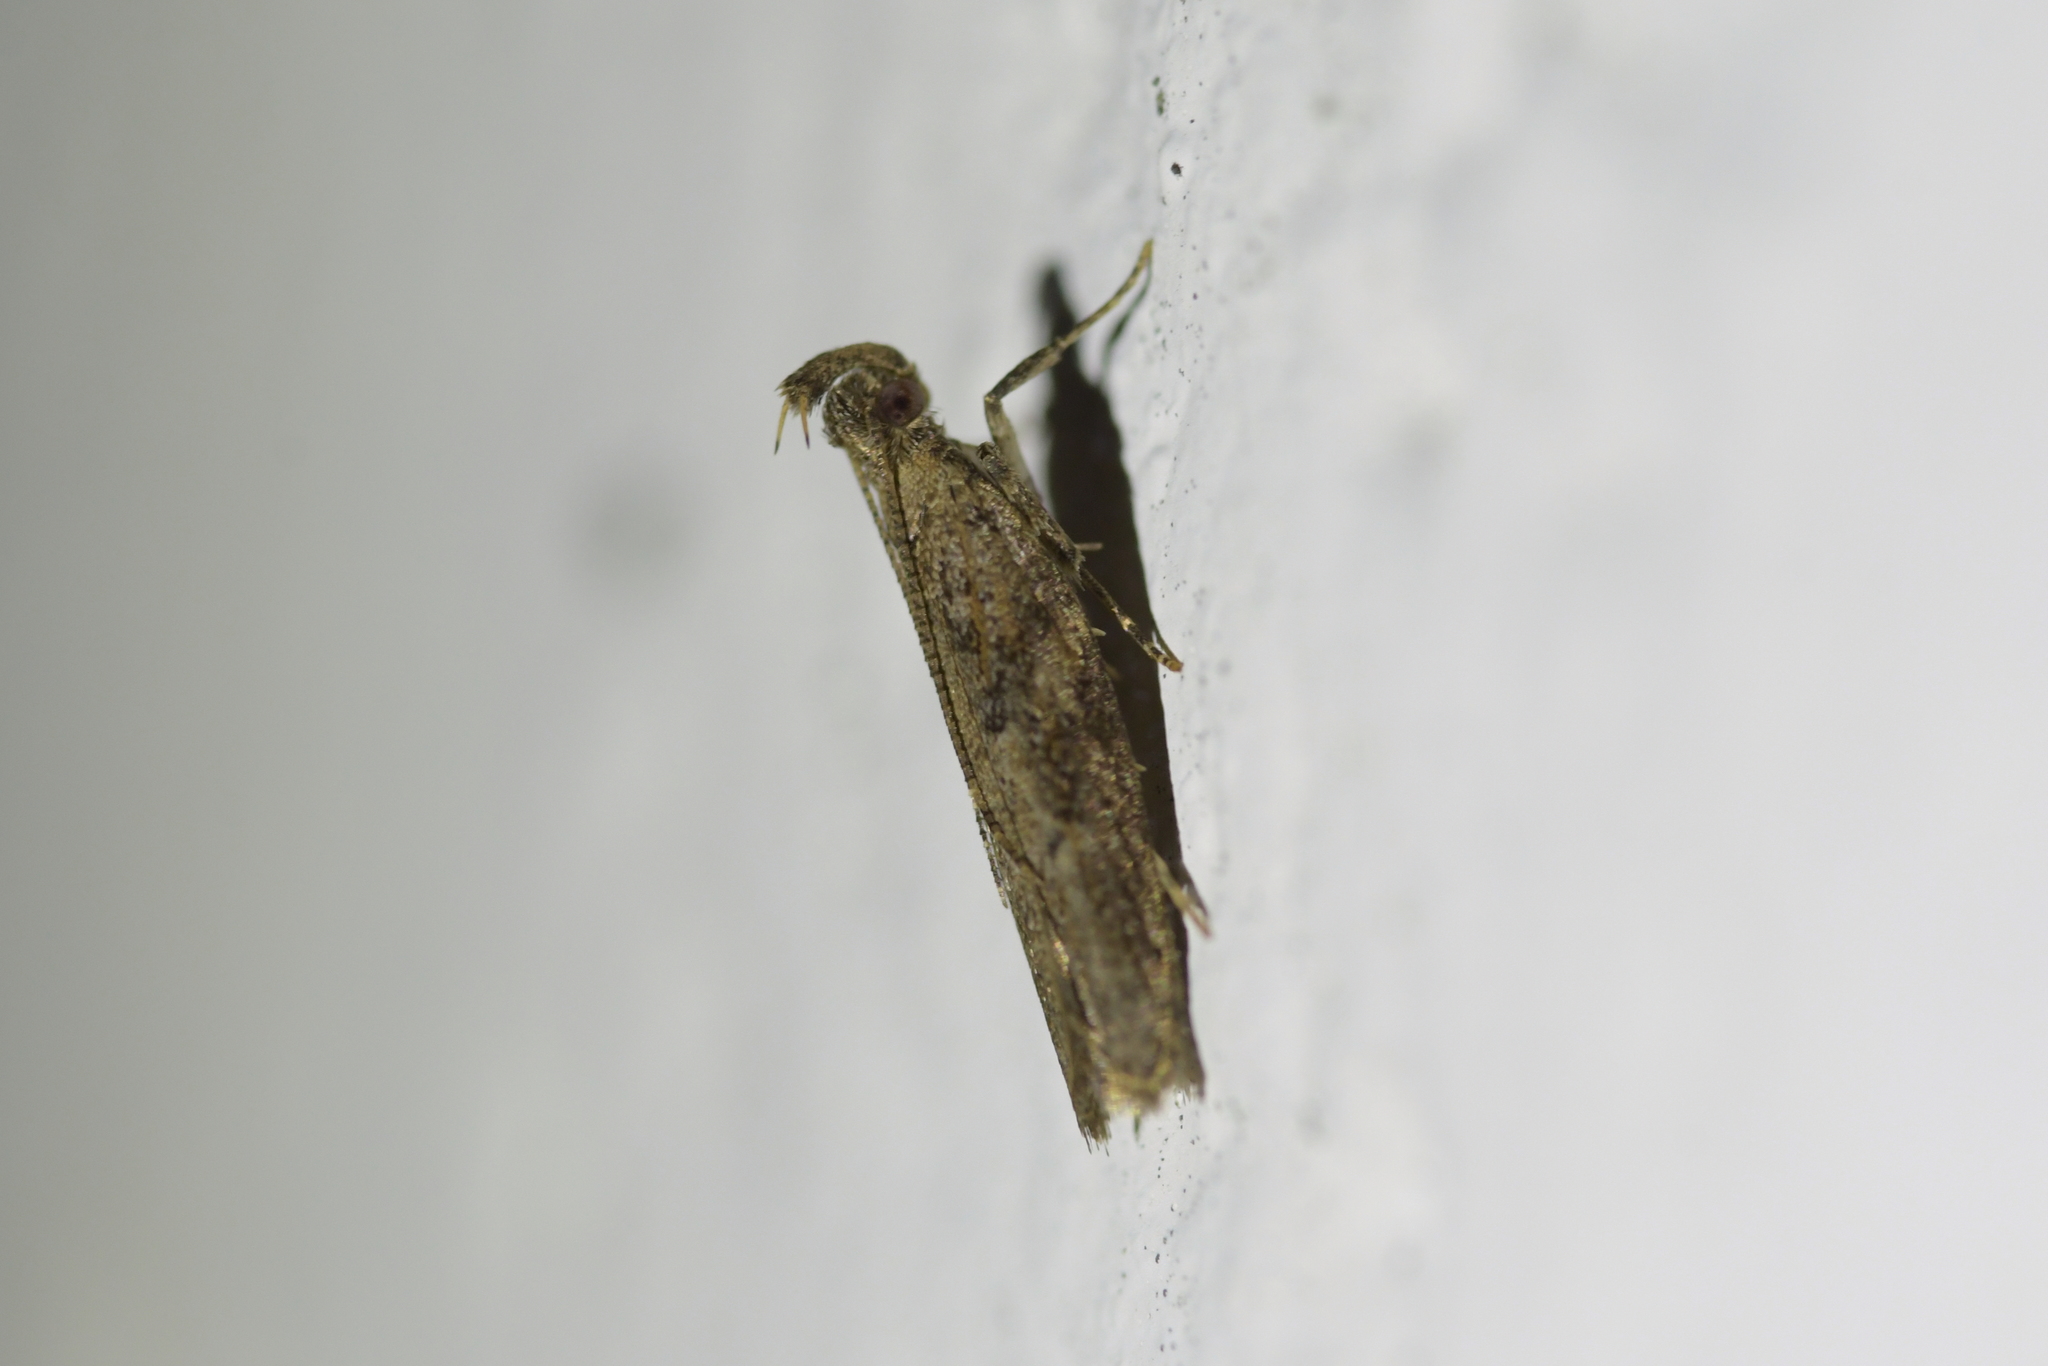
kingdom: Animalia
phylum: Arthropoda
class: Insecta
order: Lepidoptera
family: Depressariidae
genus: Eutorna
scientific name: Eutorna phaulocosma
